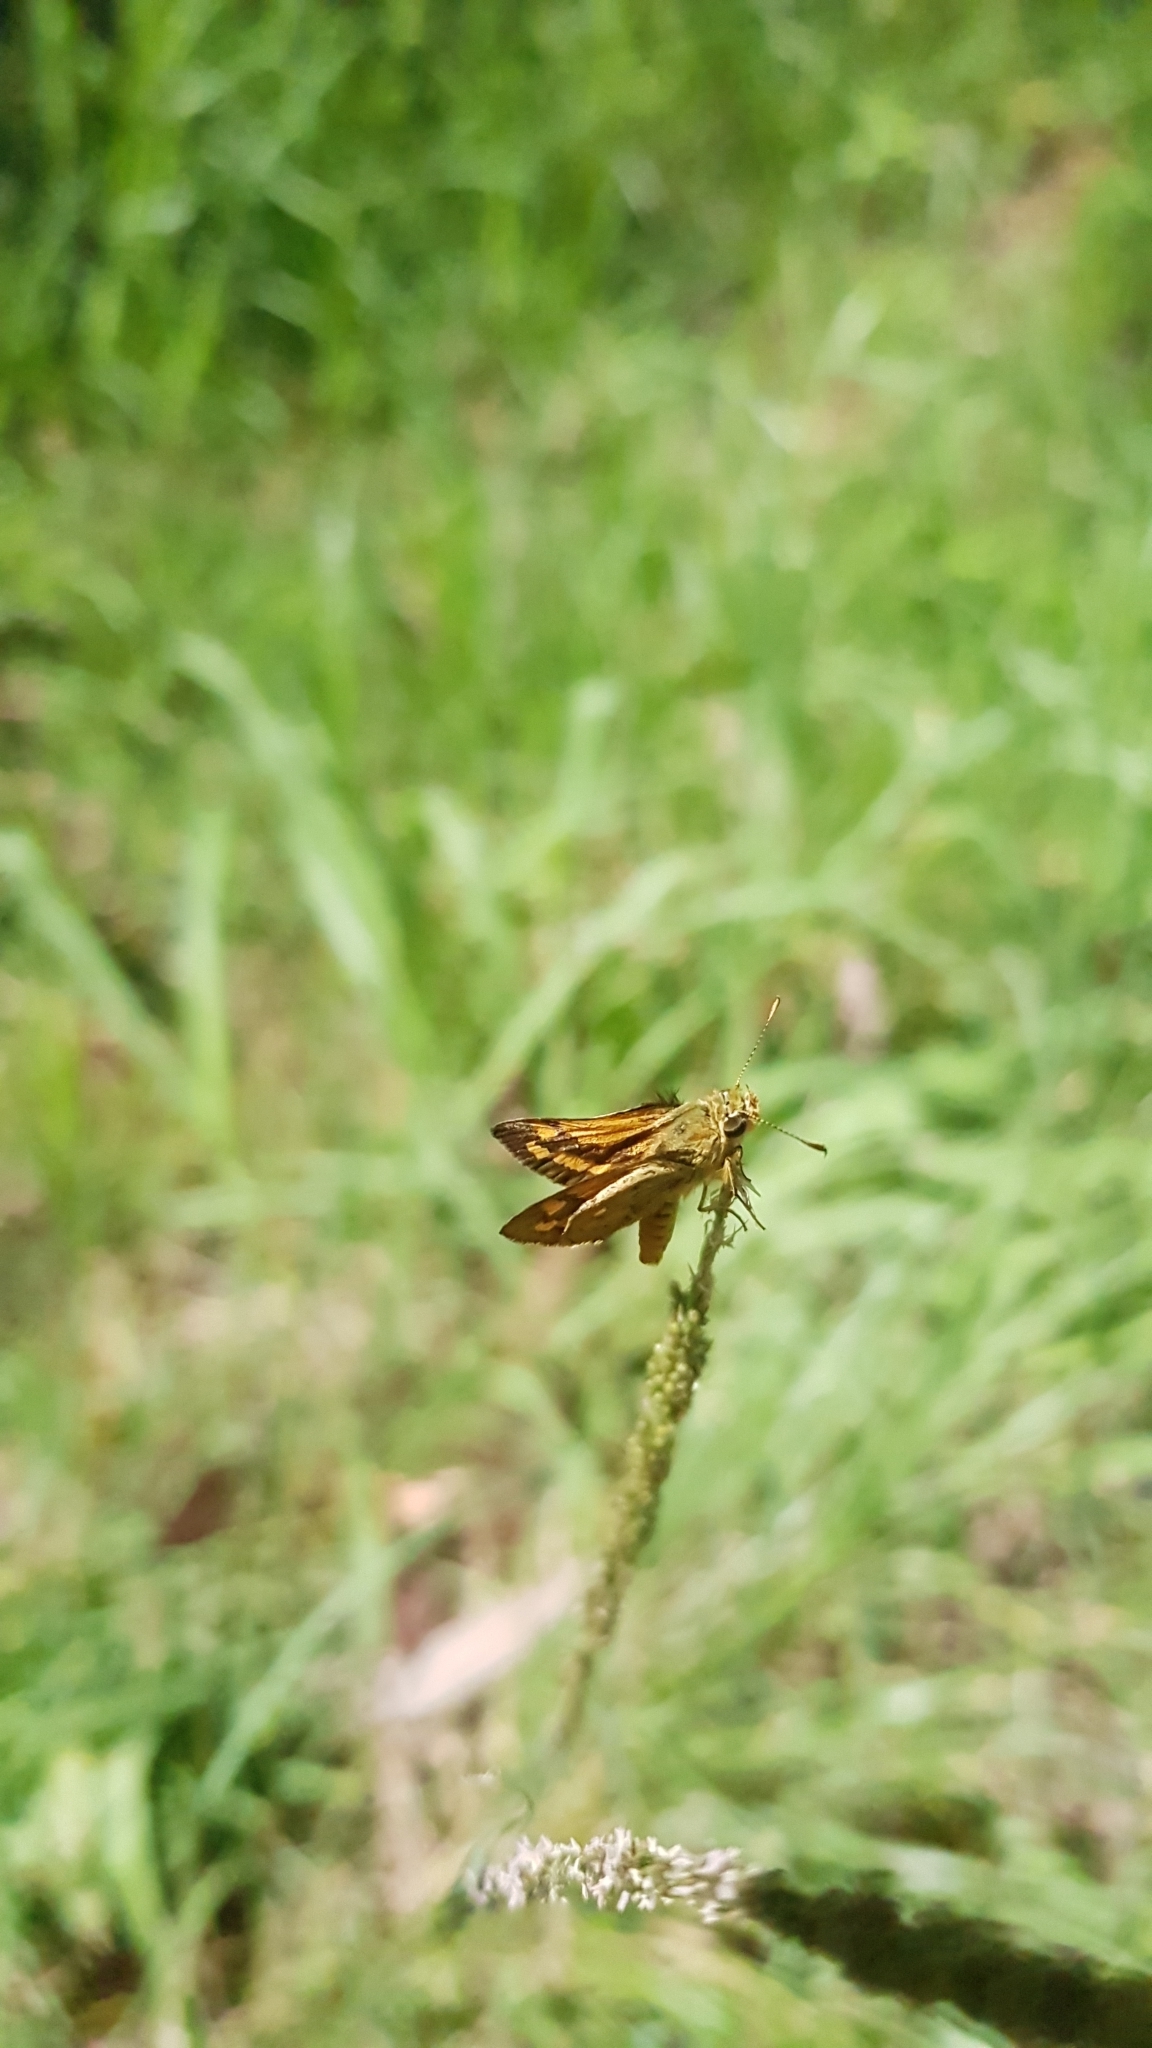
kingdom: Animalia
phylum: Arthropoda
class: Insecta
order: Lepidoptera
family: Hesperiidae
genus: Ocybadistes
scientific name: Ocybadistes walkeri
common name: Yellow-banded dart
